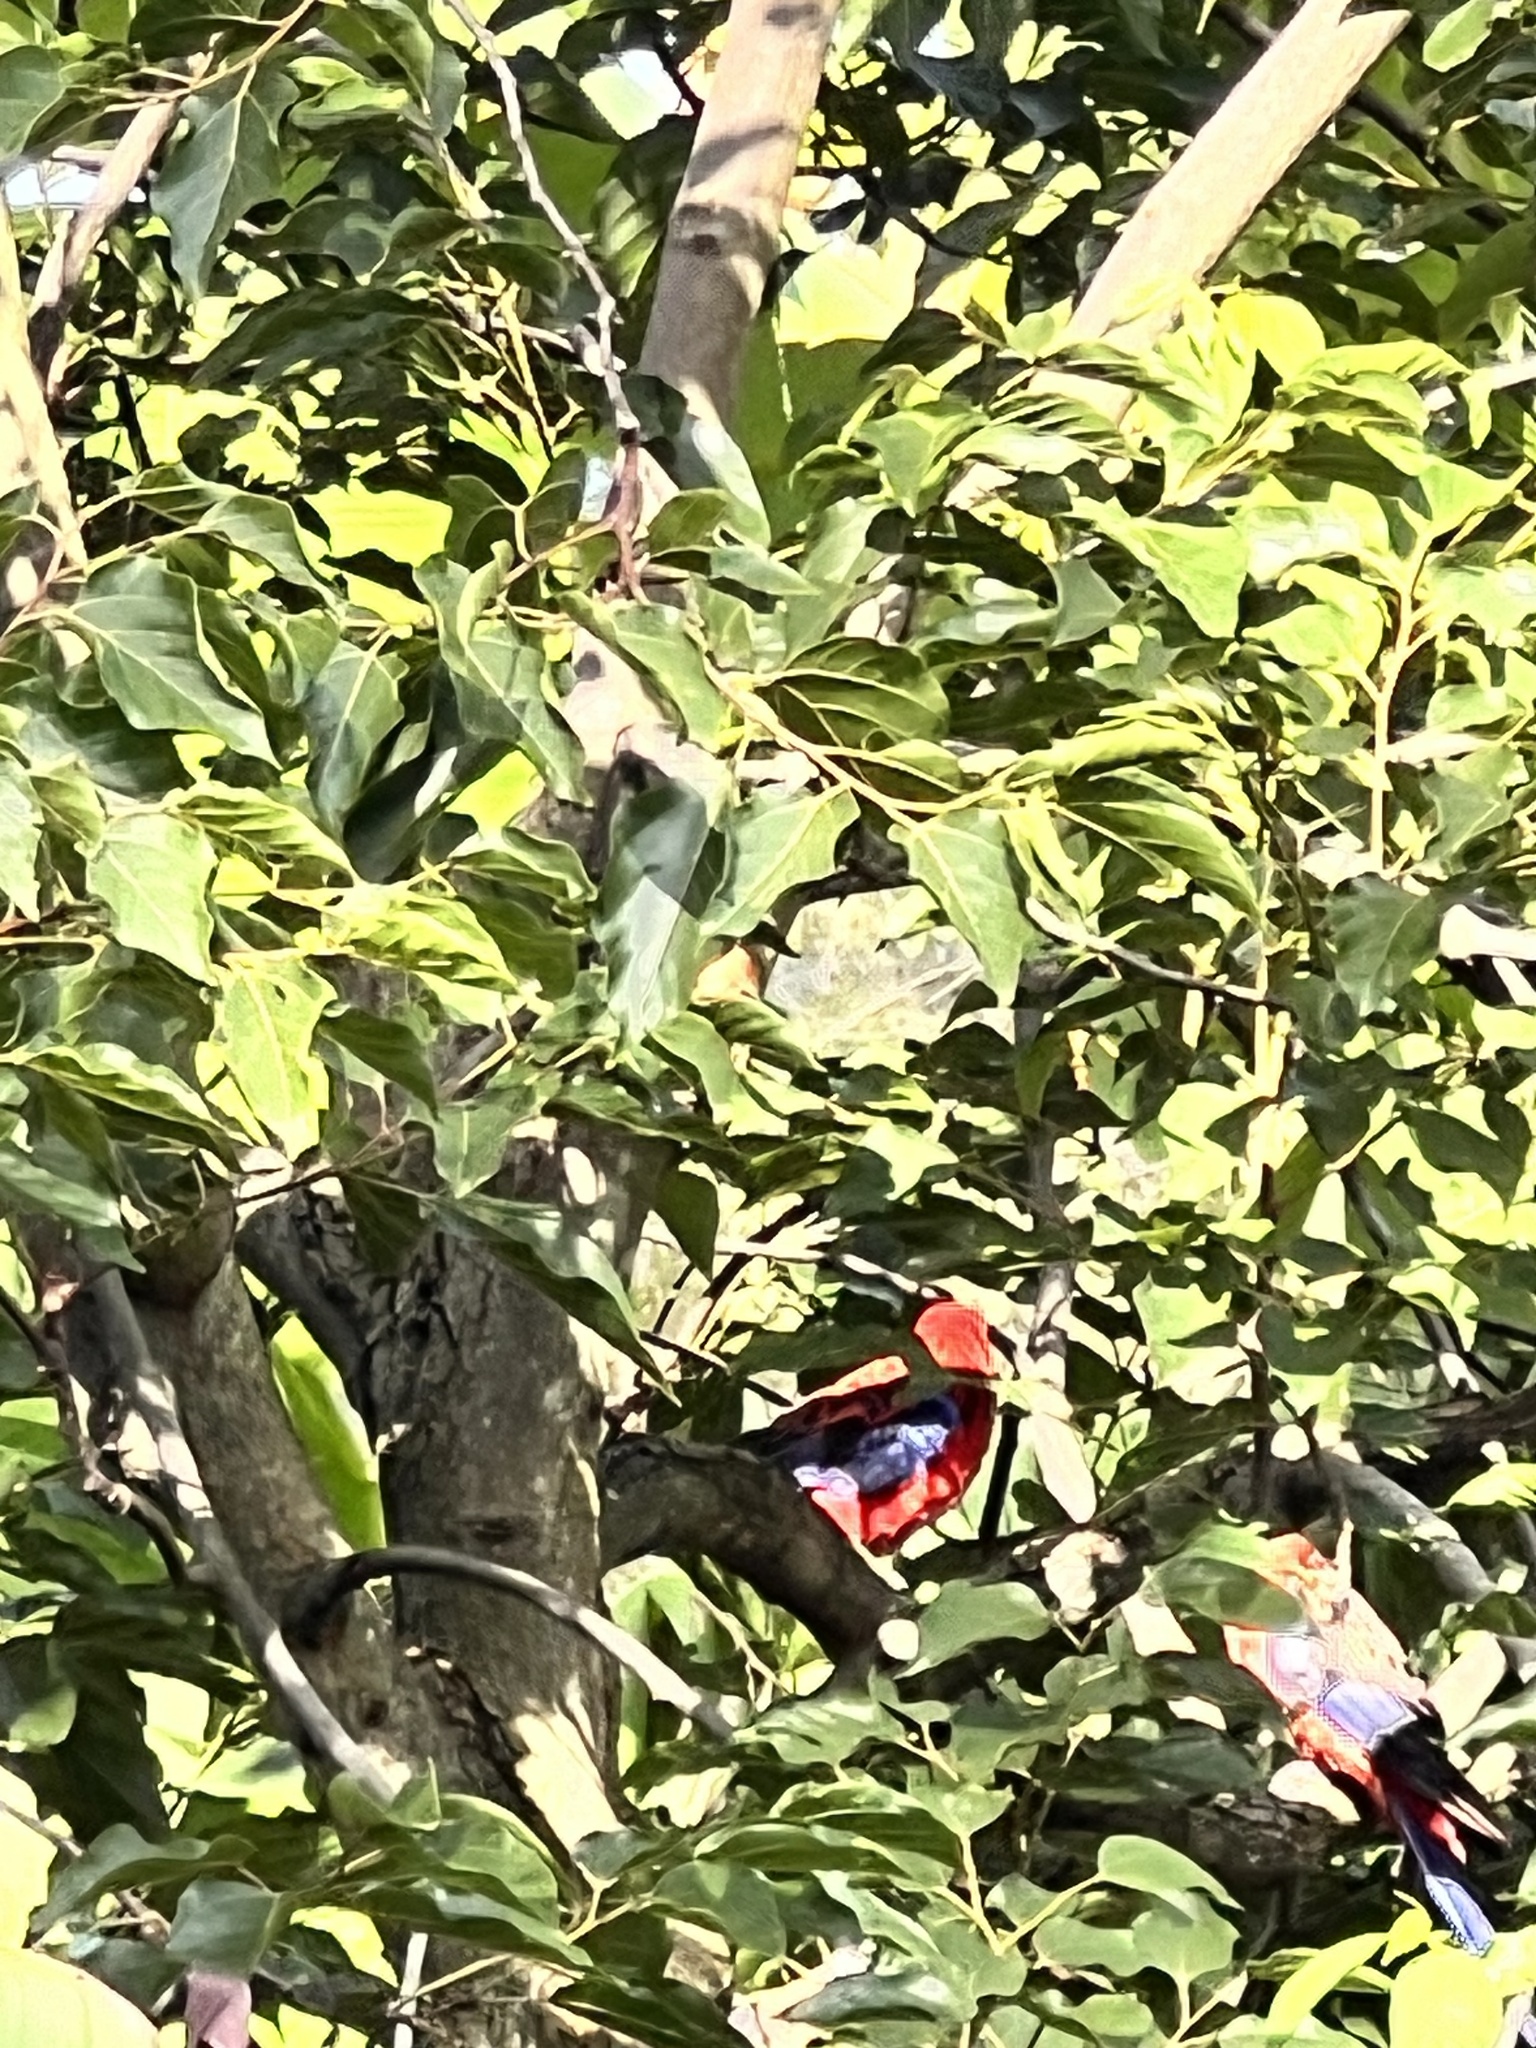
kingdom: Animalia
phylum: Chordata
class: Aves
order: Psittaciformes
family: Psittacidae
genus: Platycercus
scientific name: Platycercus elegans
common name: Crimson rosella
